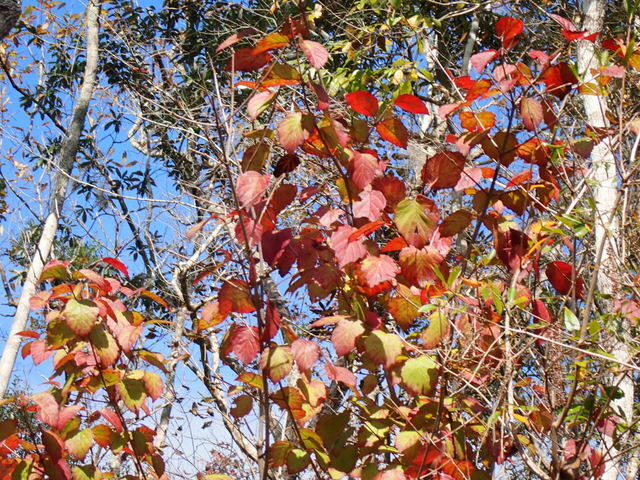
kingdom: Plantae
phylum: Tracheophyta
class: Magnoliopsida
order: Dipsacales
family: Viburnaceae
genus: Viburnum
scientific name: Viburnum scabrellum
